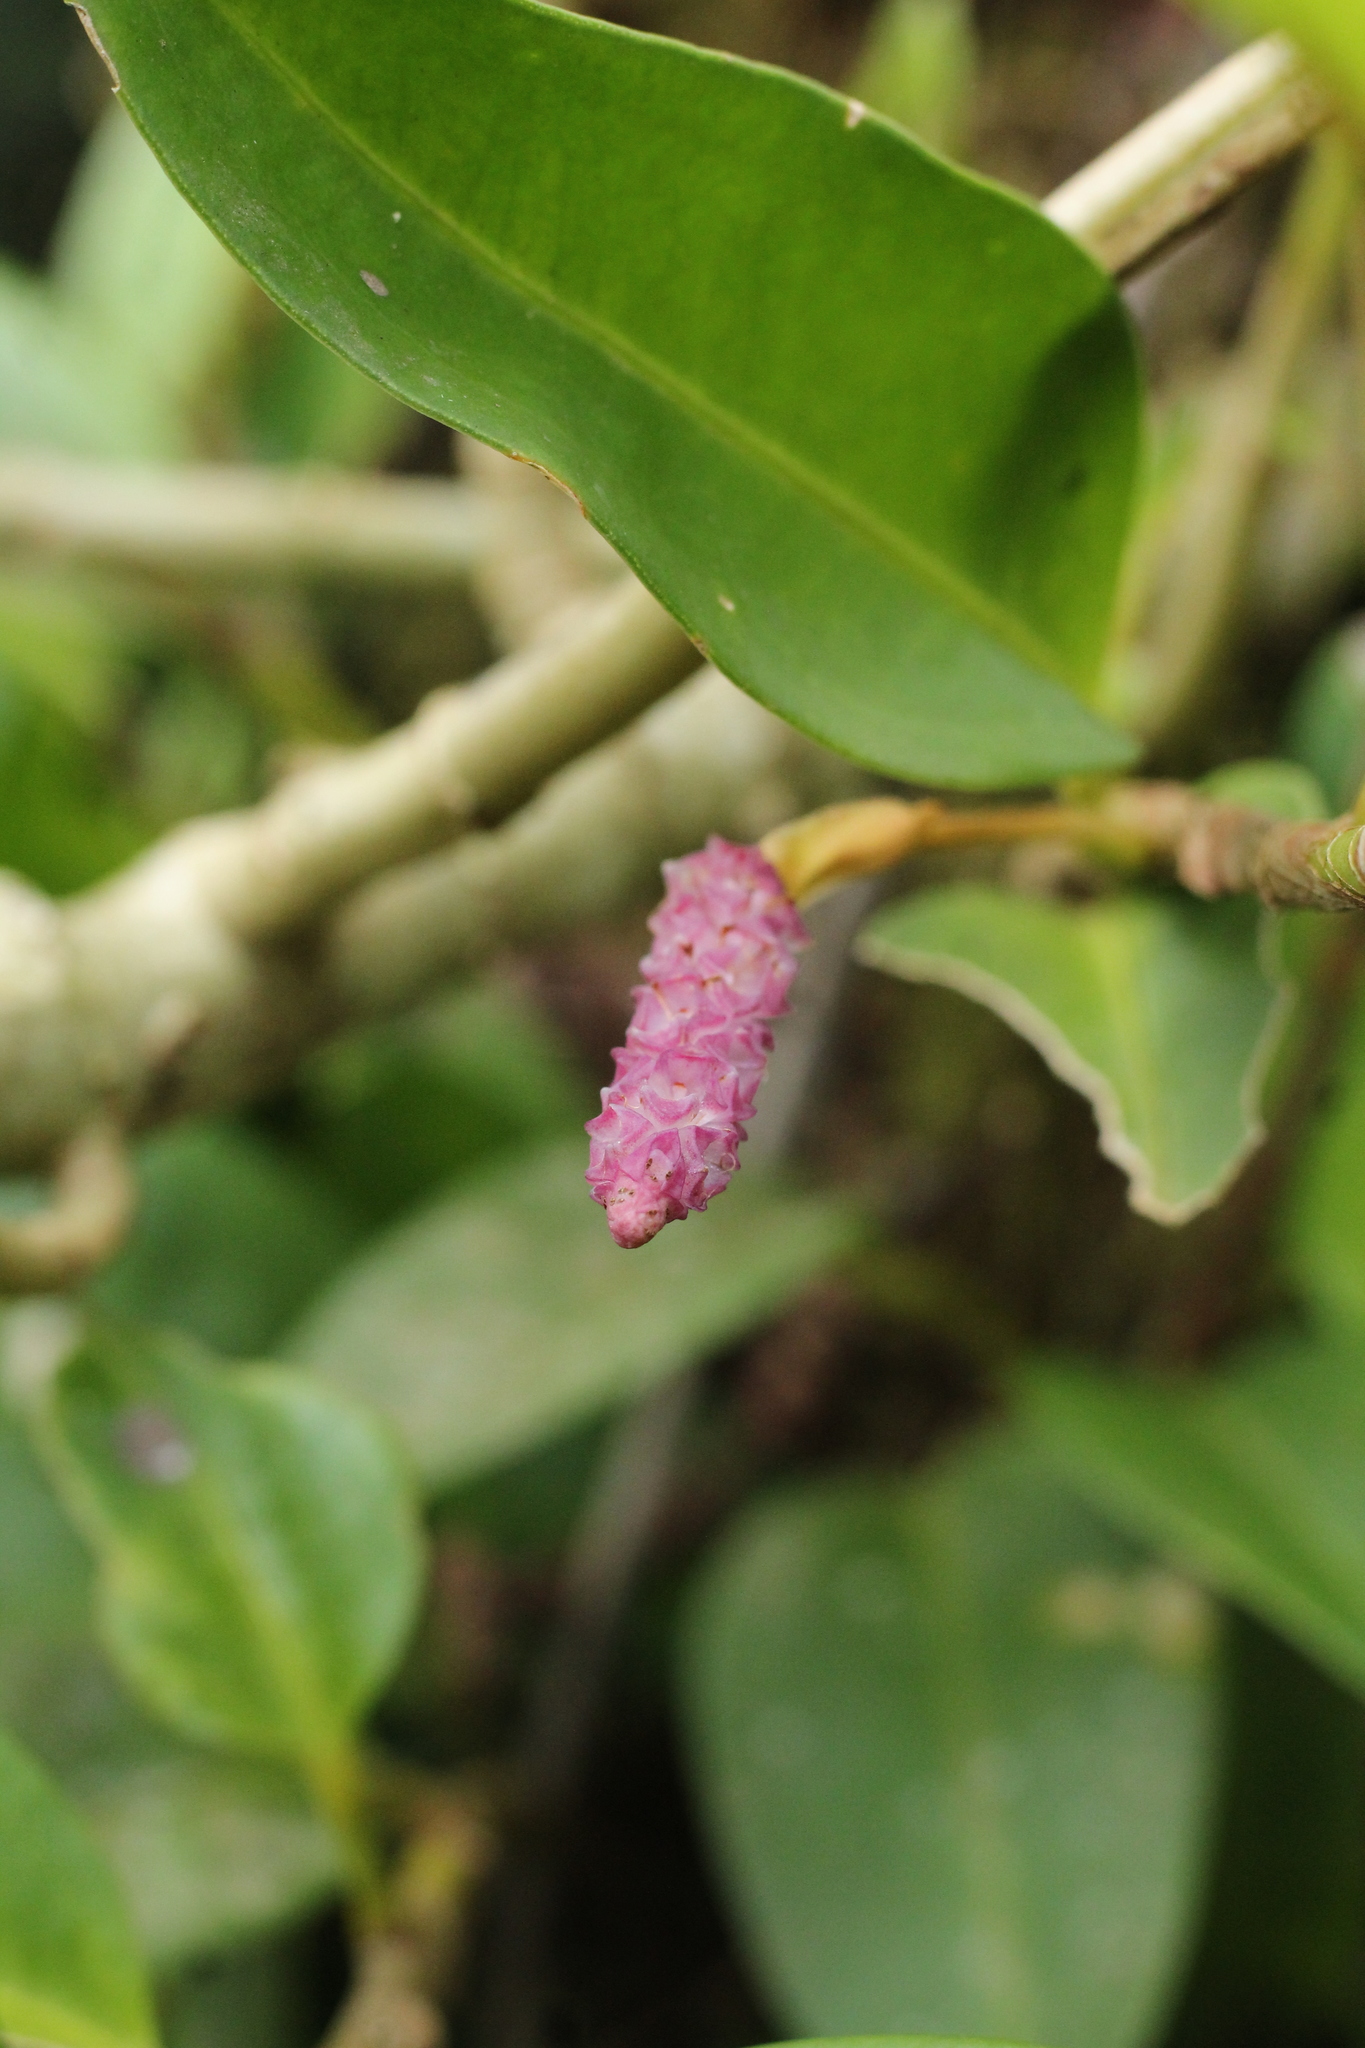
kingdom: Plantae
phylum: Tracheophyta
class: Liliopsida
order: Alismatales
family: Araceae
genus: Anthurium
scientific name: Anthurium scandens
